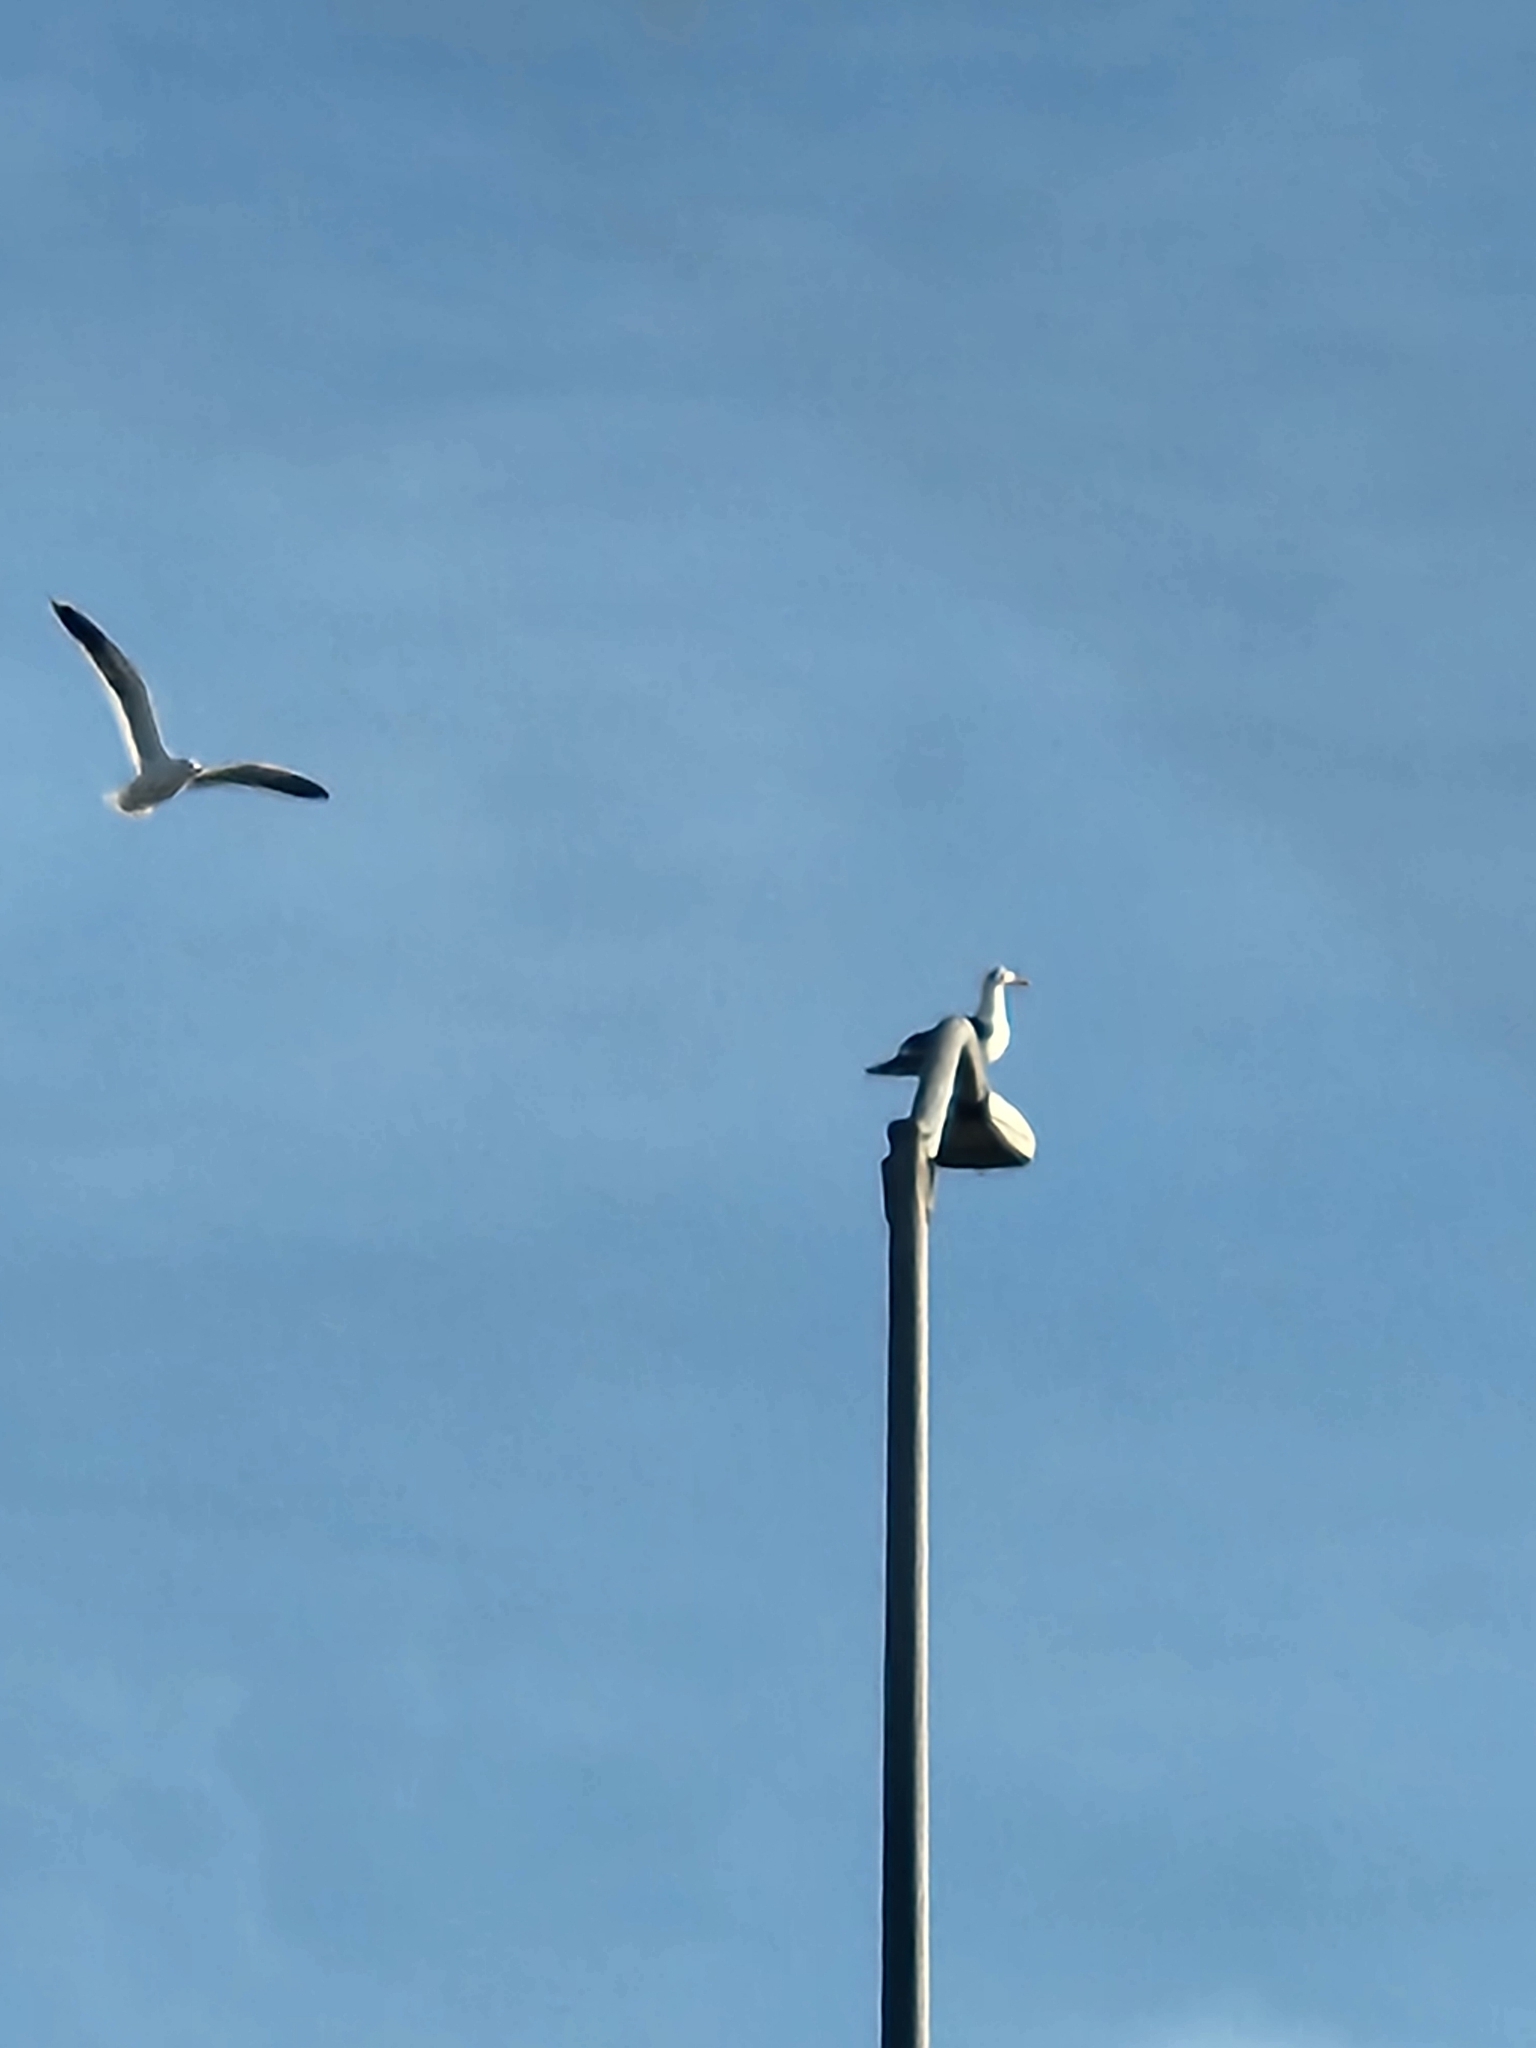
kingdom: Animalia
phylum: Chordata
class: Aves
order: Charadriiformes
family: Laridae
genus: Larus
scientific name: Larus occidentalis
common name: Western gull
